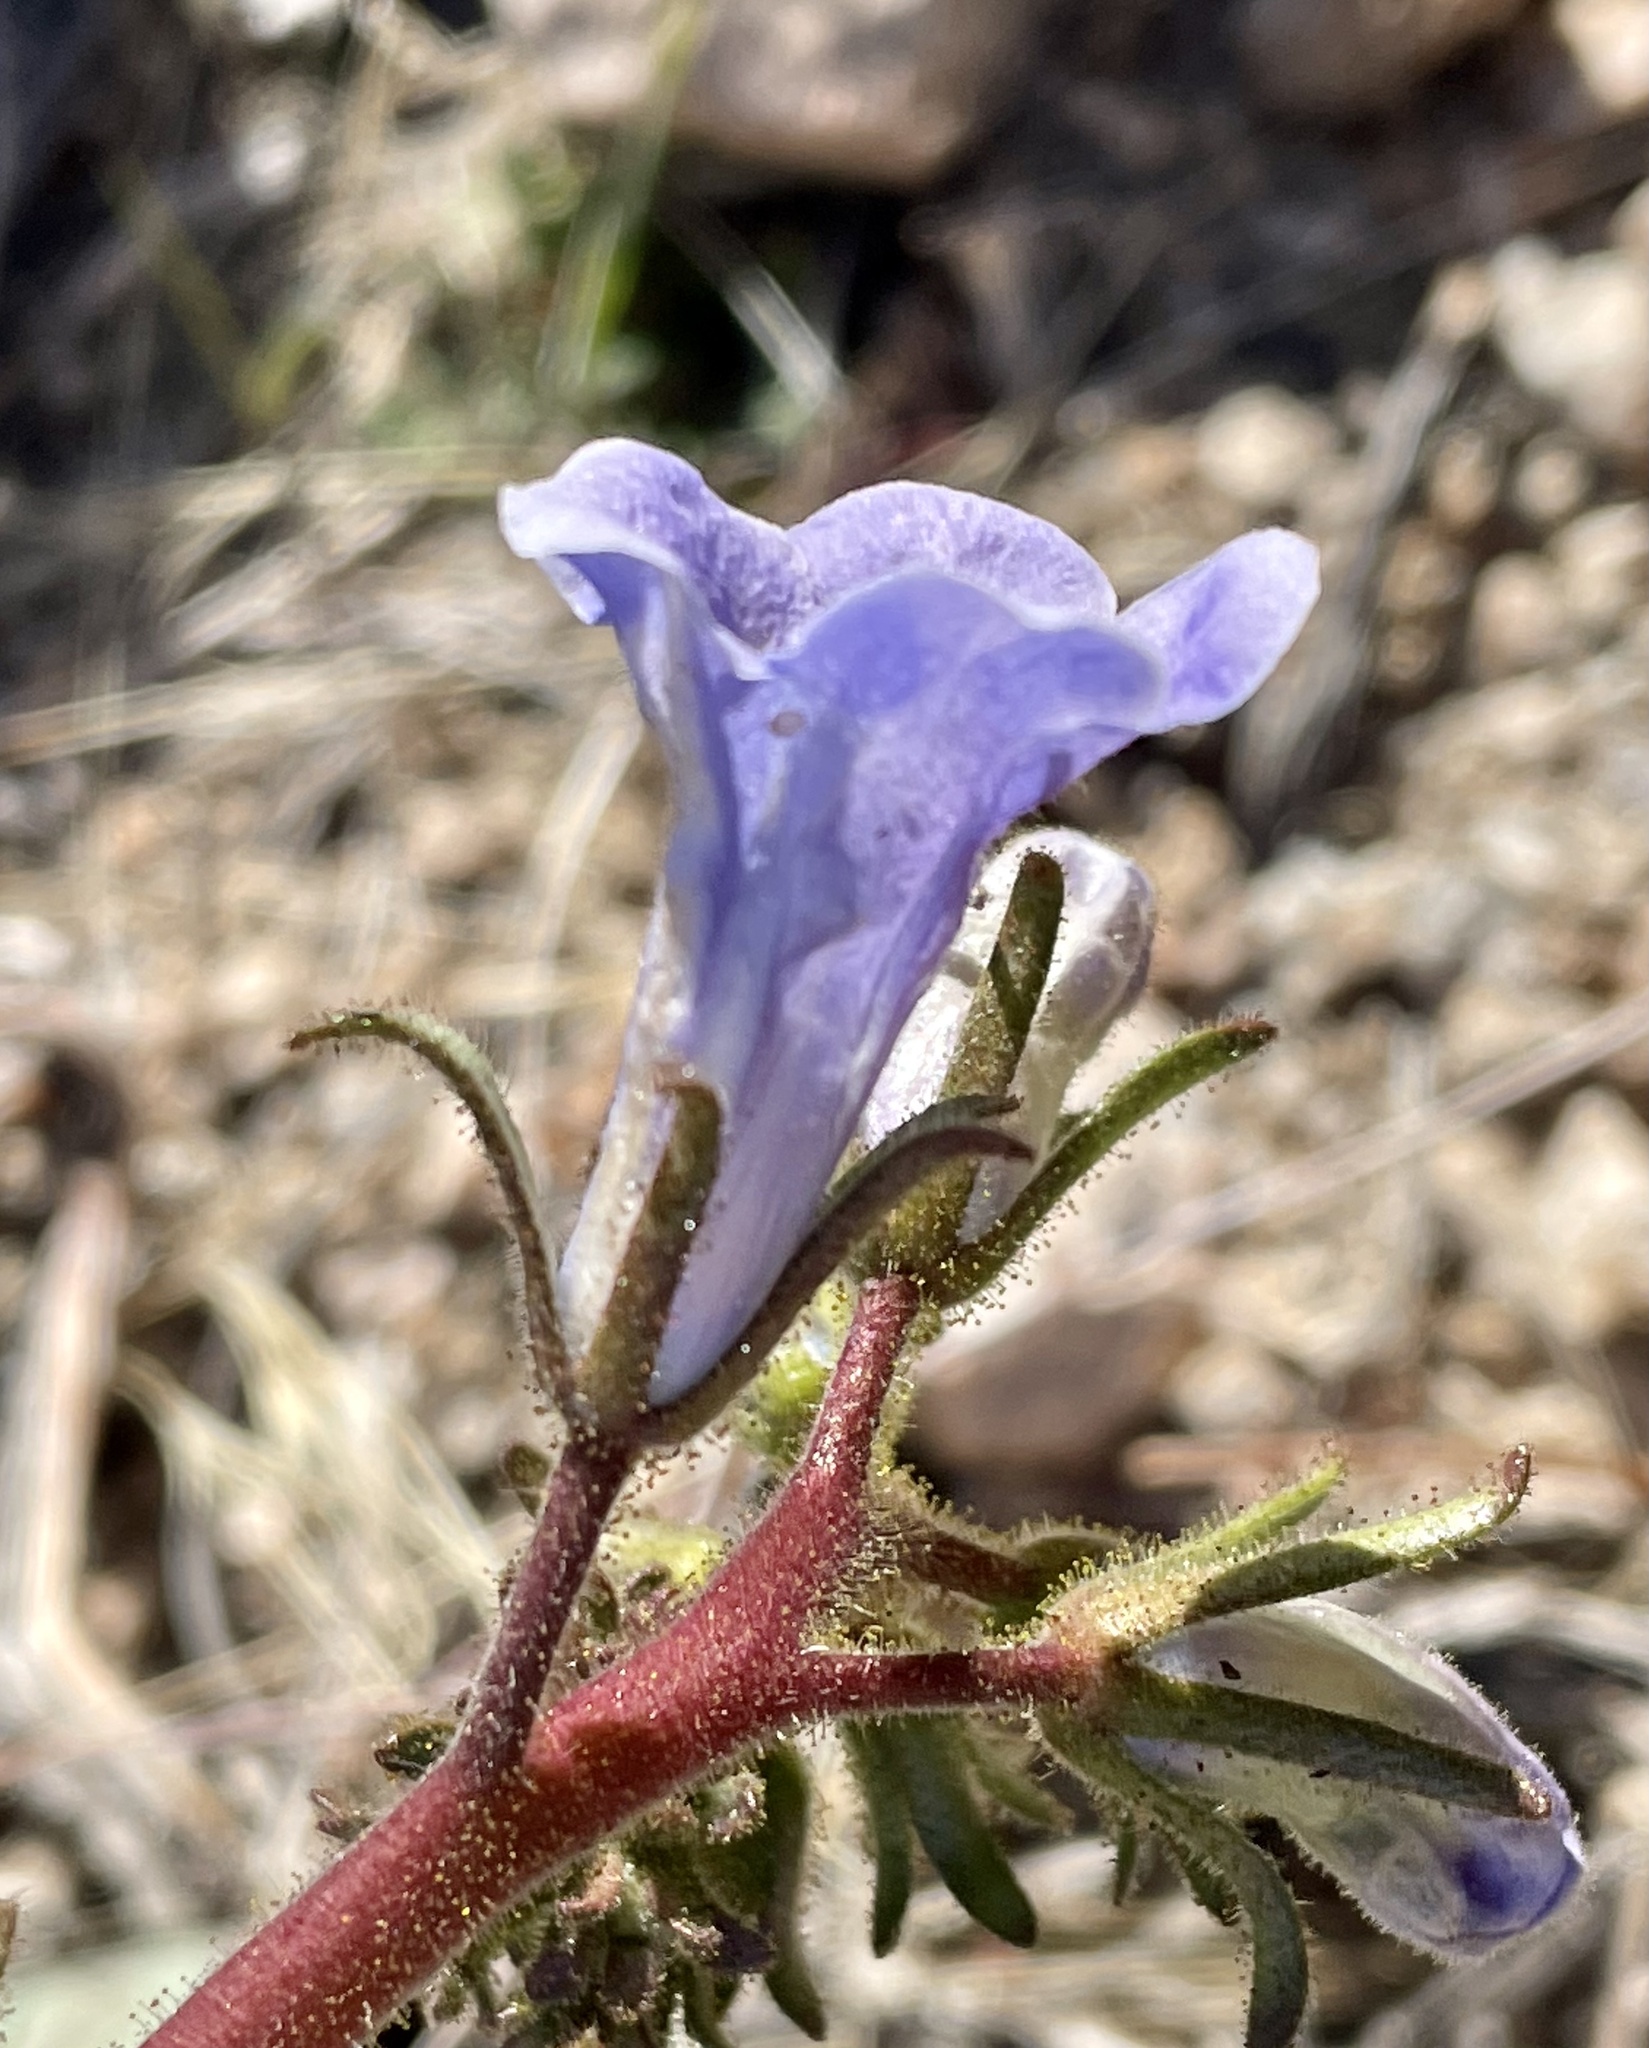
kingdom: Plantae
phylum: Tracheophyta
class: Magnoliopsida
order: Boraginales
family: Hydrophyllaceae
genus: Phacelia
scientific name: Phacelia campanularia
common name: California bluebell
